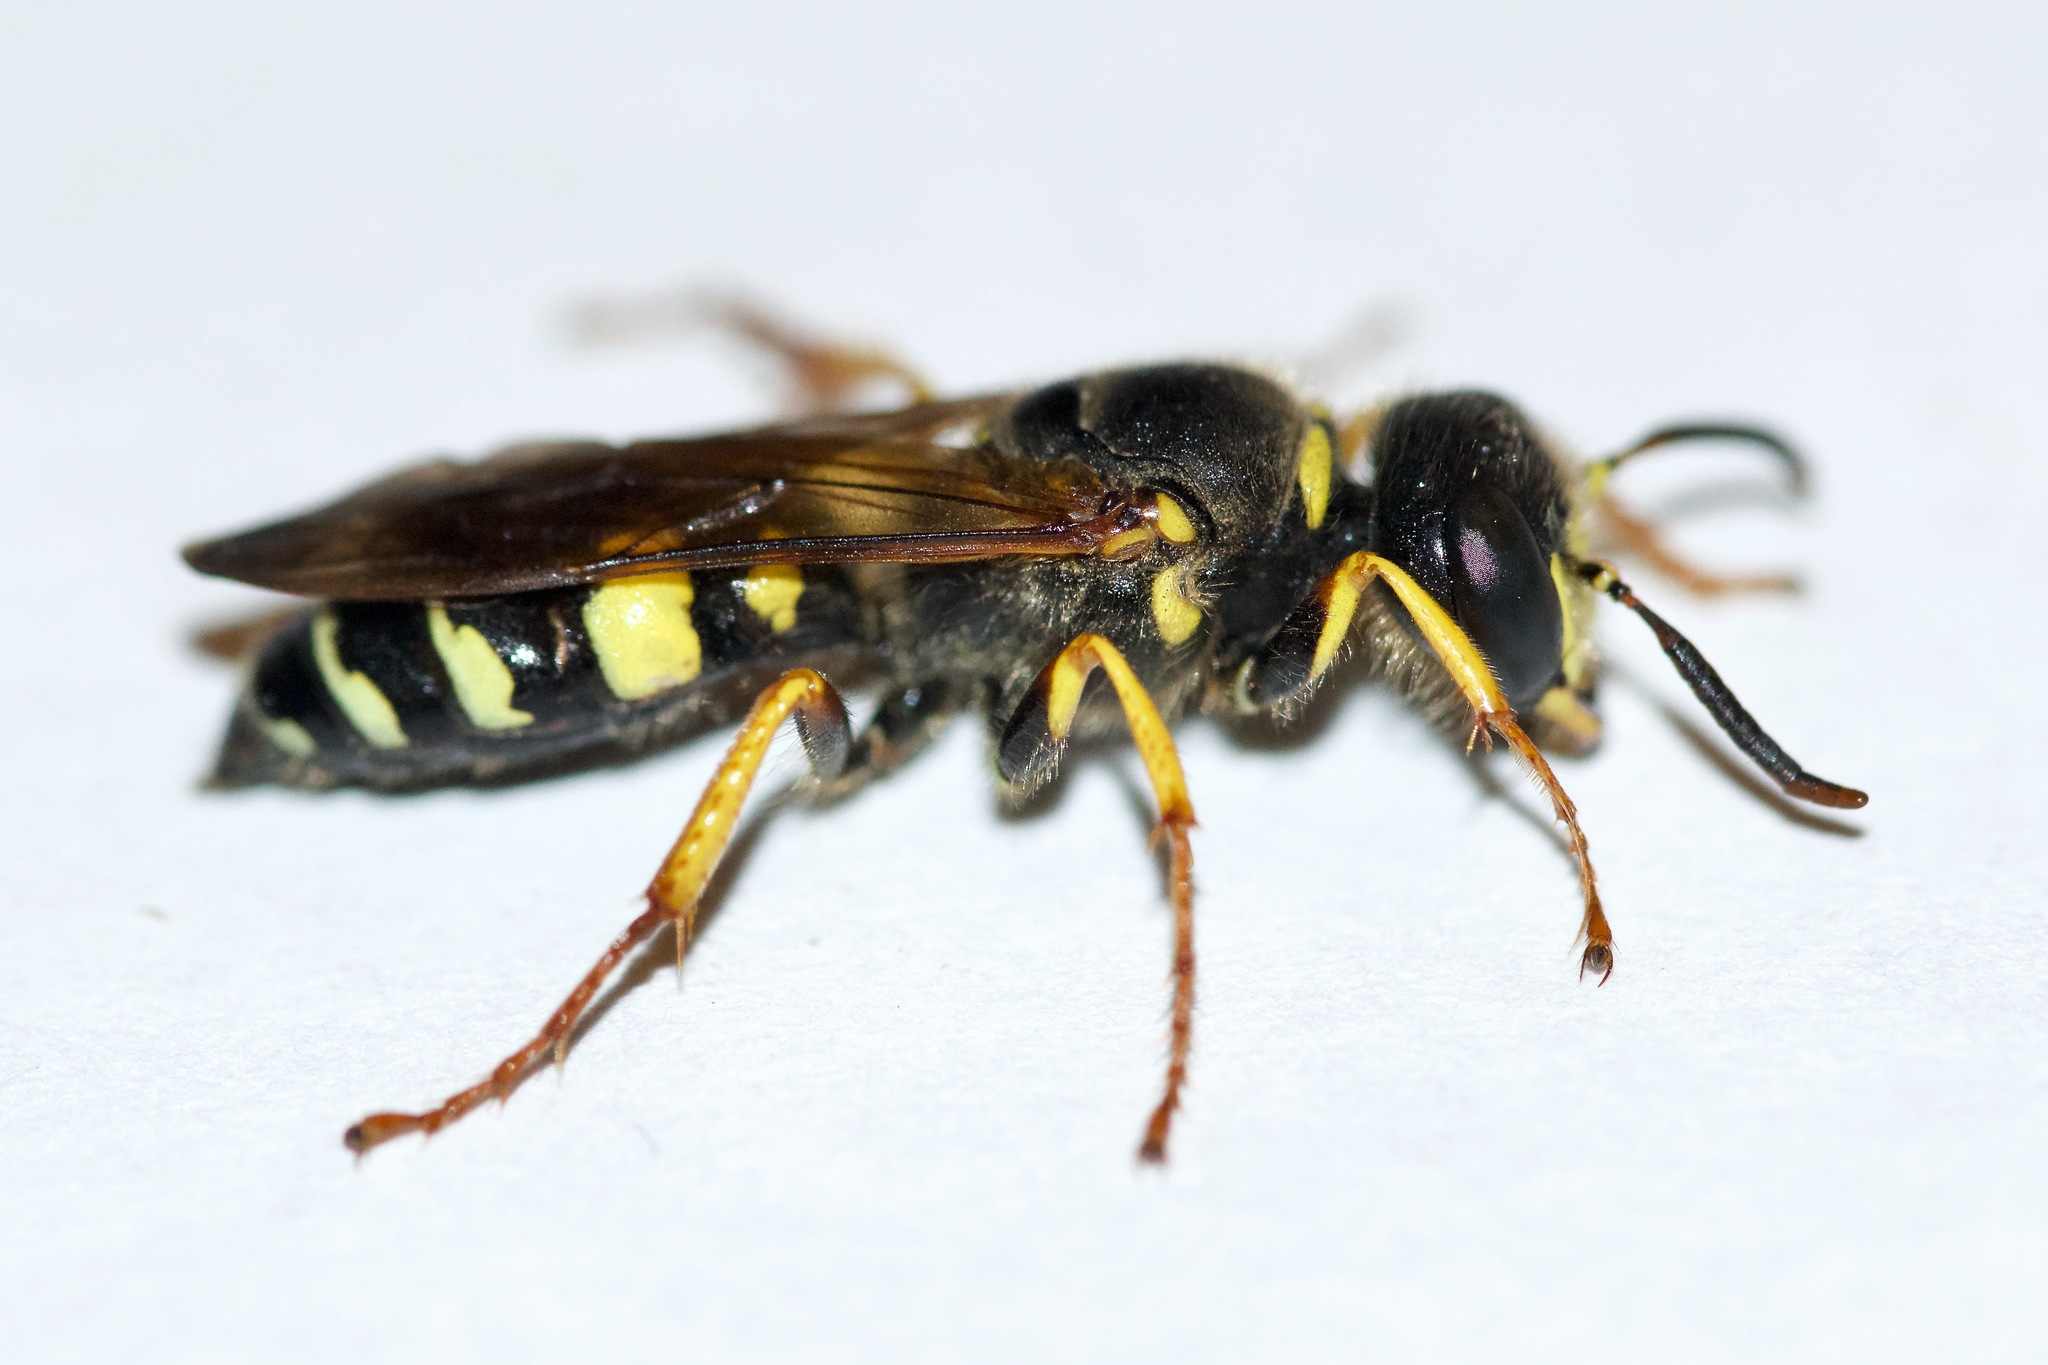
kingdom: Animalia
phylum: Arthropoda
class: Insecta
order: Hymenoptera
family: Crabronidae
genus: Philanthus
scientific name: Philanthus sanbornii
